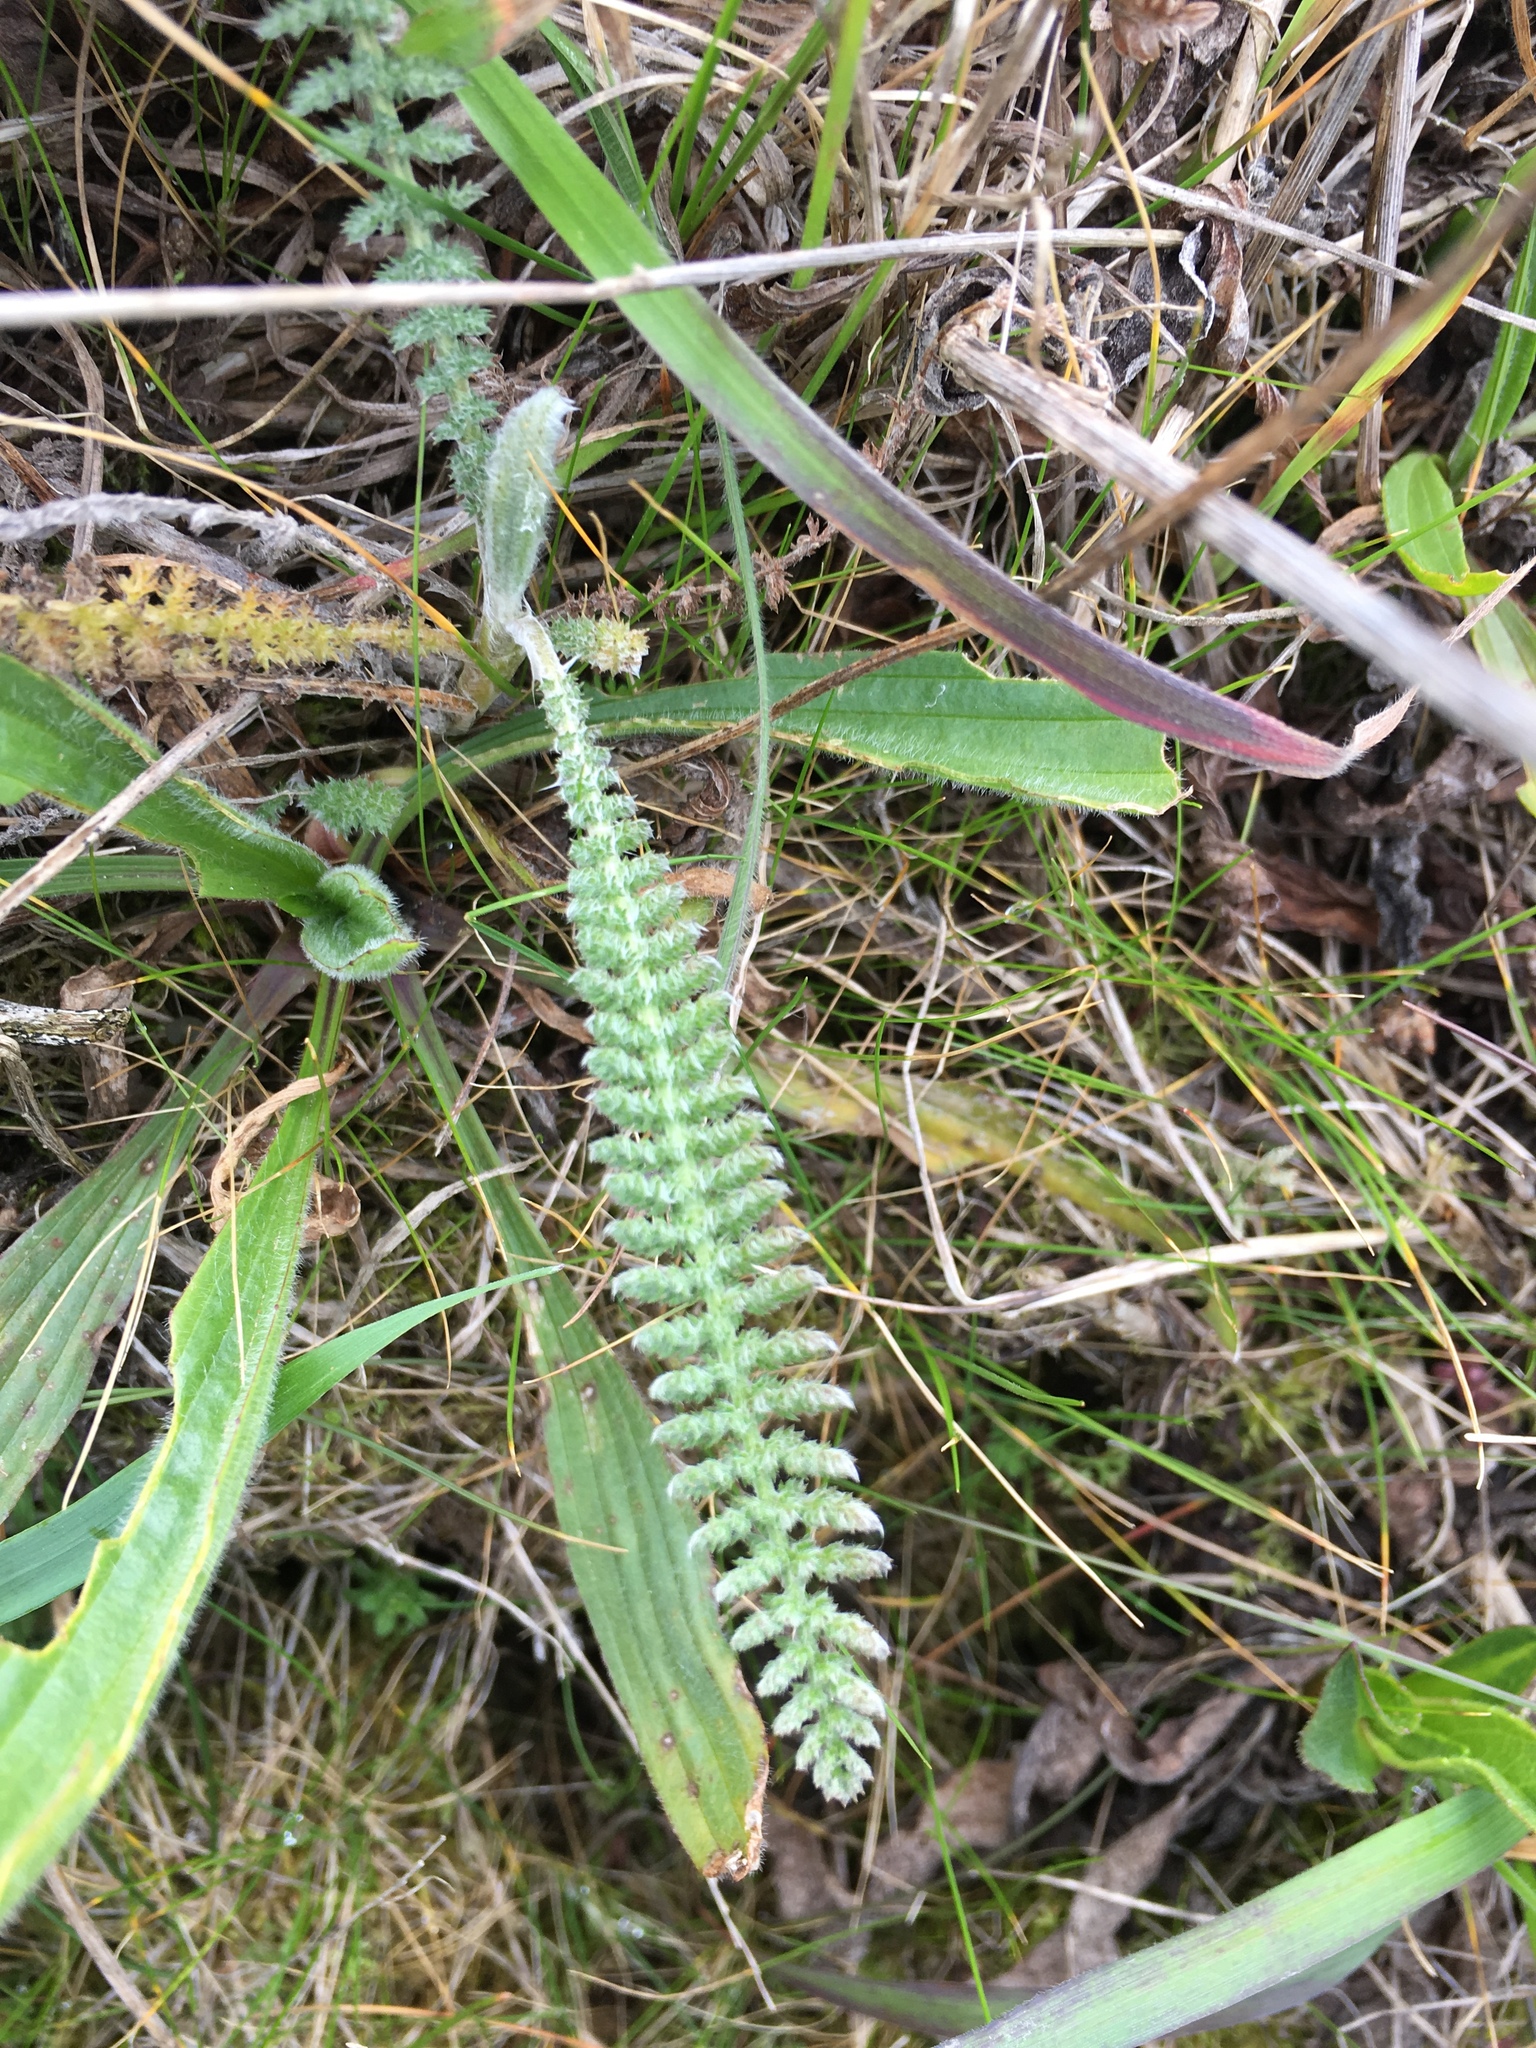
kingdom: Plantae
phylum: Tracheophyta
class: Magnoliopsida
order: Asterales
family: Asteraceae
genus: Achillea
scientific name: Achillea millefolium
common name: Yarrow
